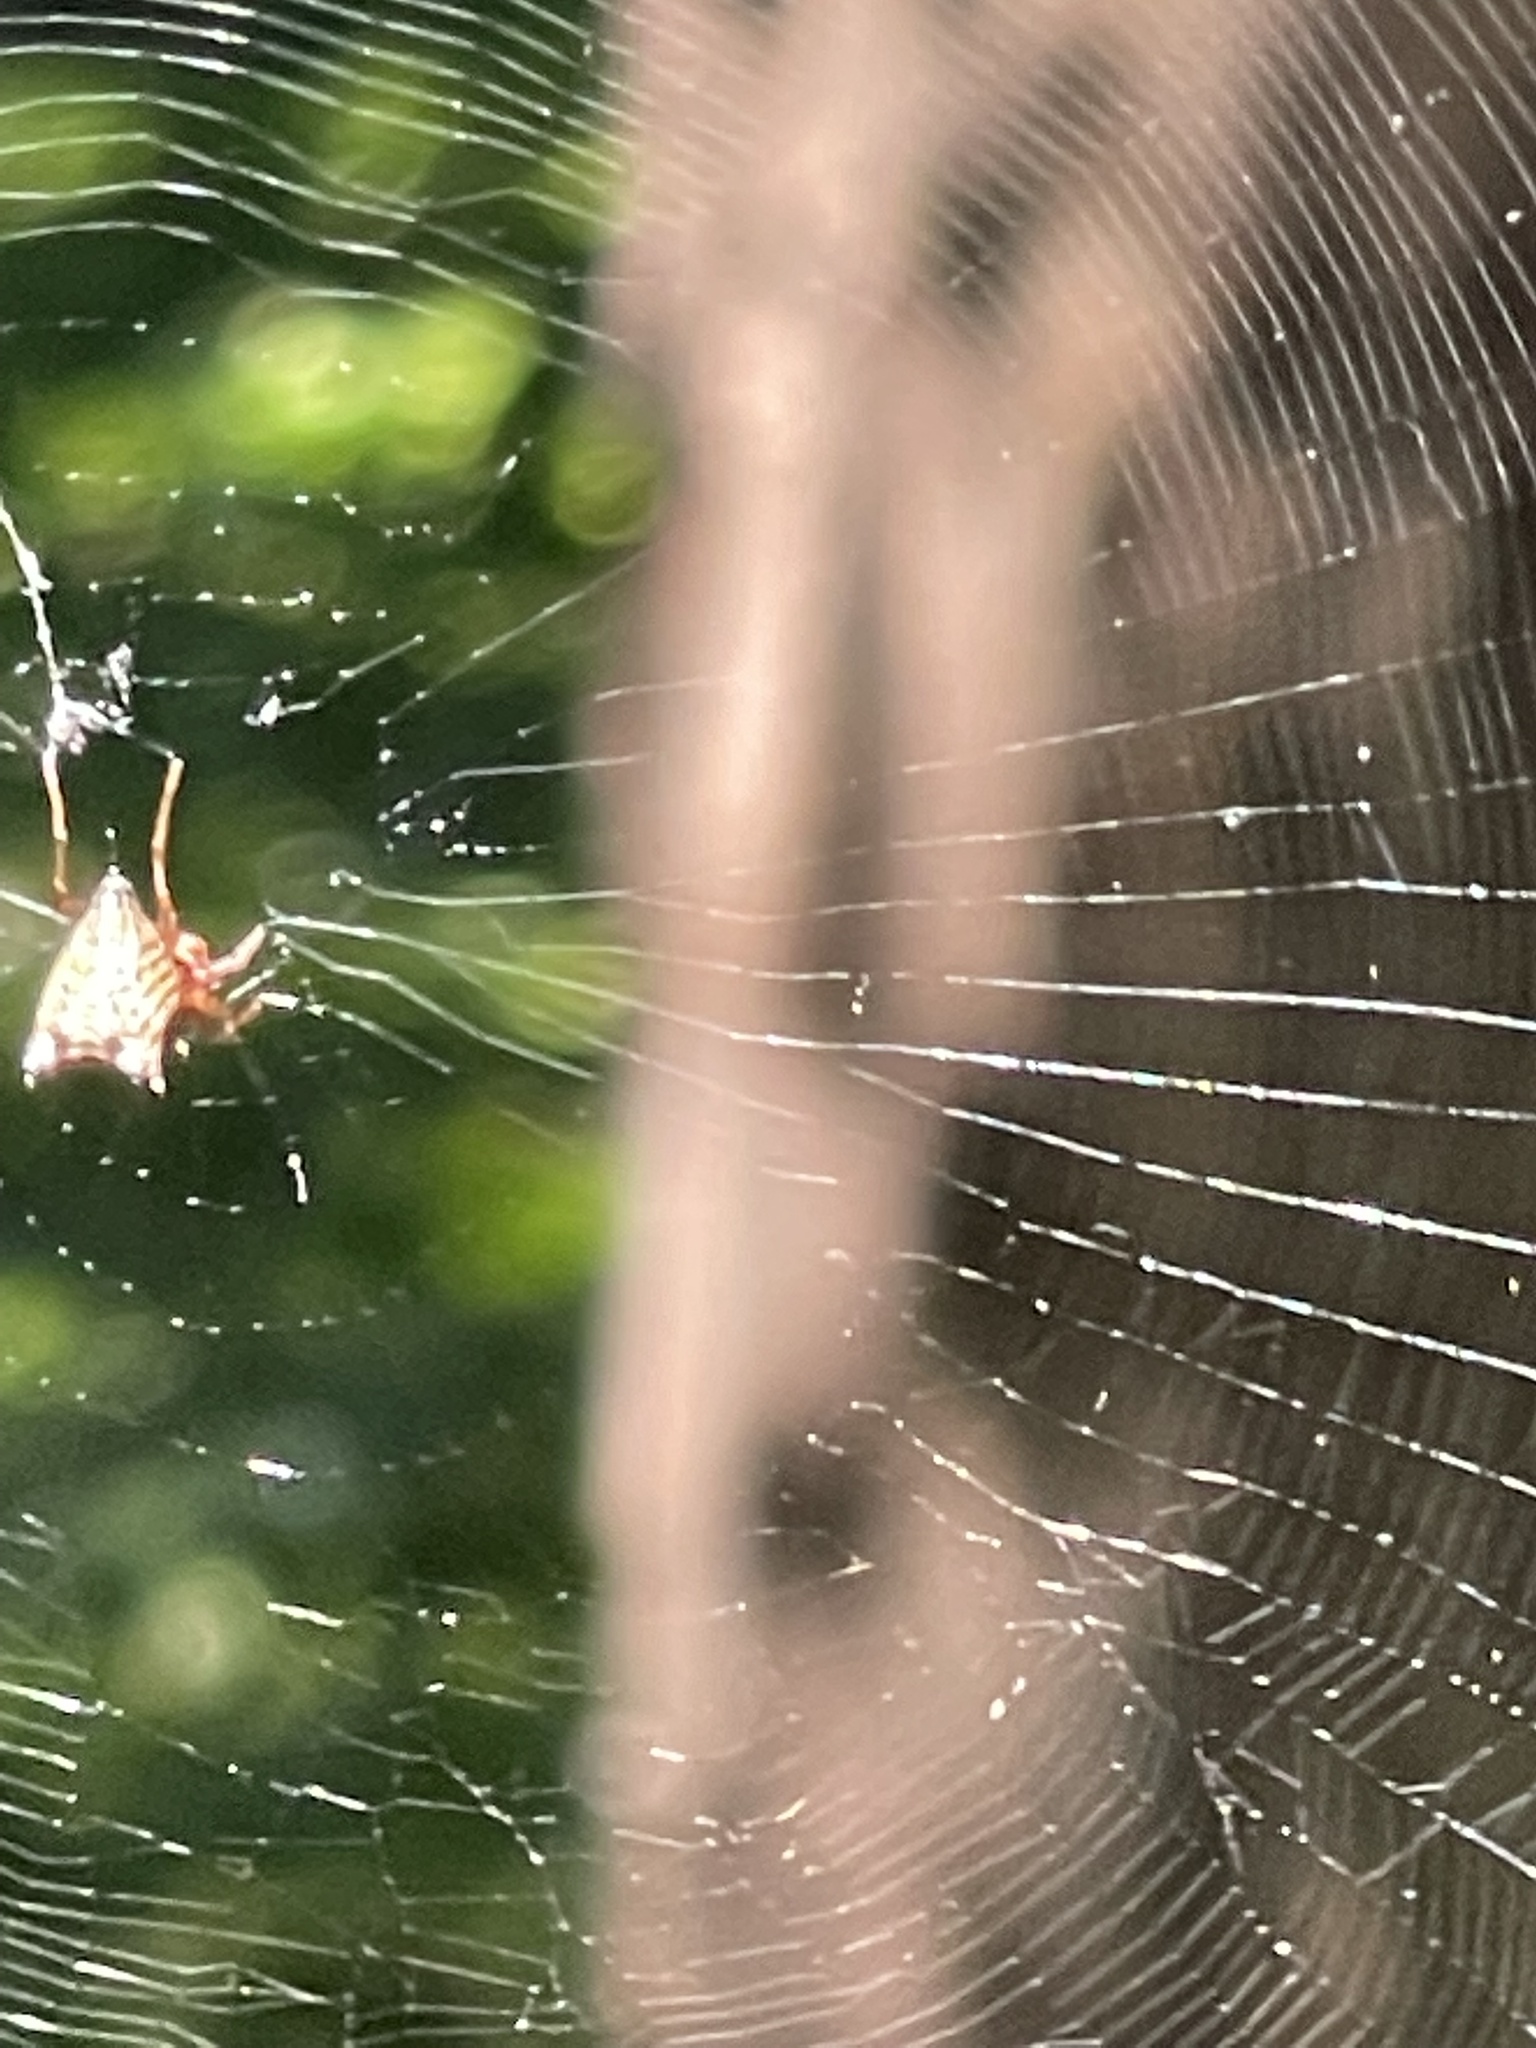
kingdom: Animalia
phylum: Arthropoda
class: Arachnida
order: Araneae
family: Araneidae
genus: Micrathena
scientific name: Micrathena gracilis
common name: Orb weavers
